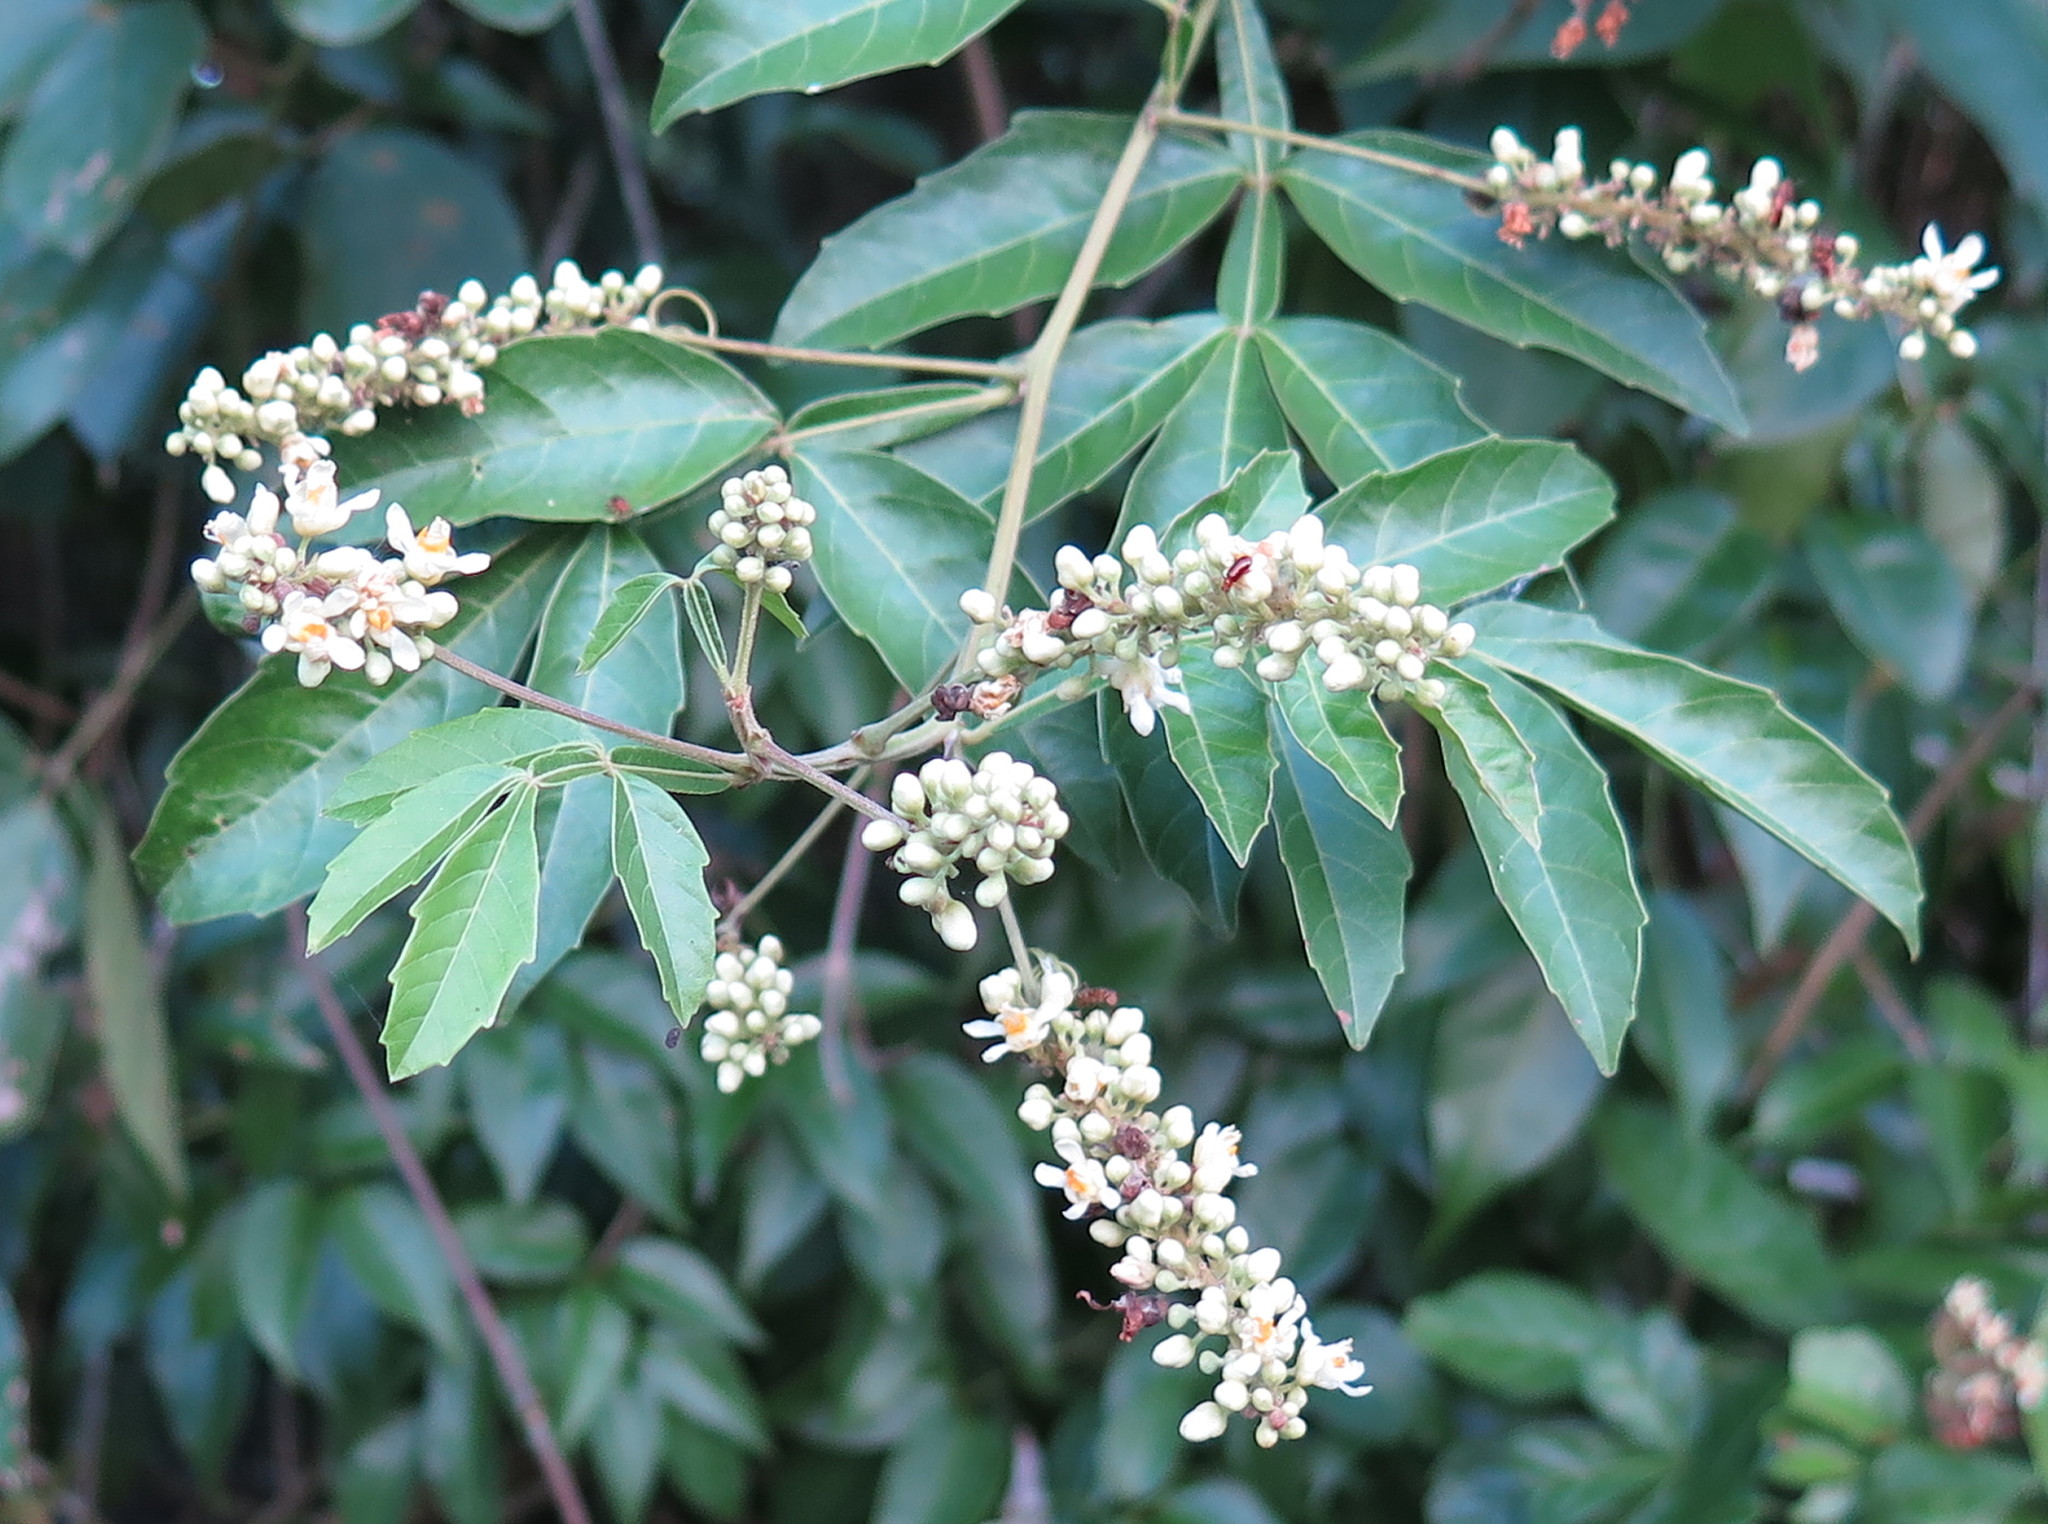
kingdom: Plantae
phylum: Tracheophyta
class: Magnoliopsida
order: Sapindales
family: Sapindaceae
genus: Paullinia
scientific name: Paullinia pinnata
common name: Barbasco
